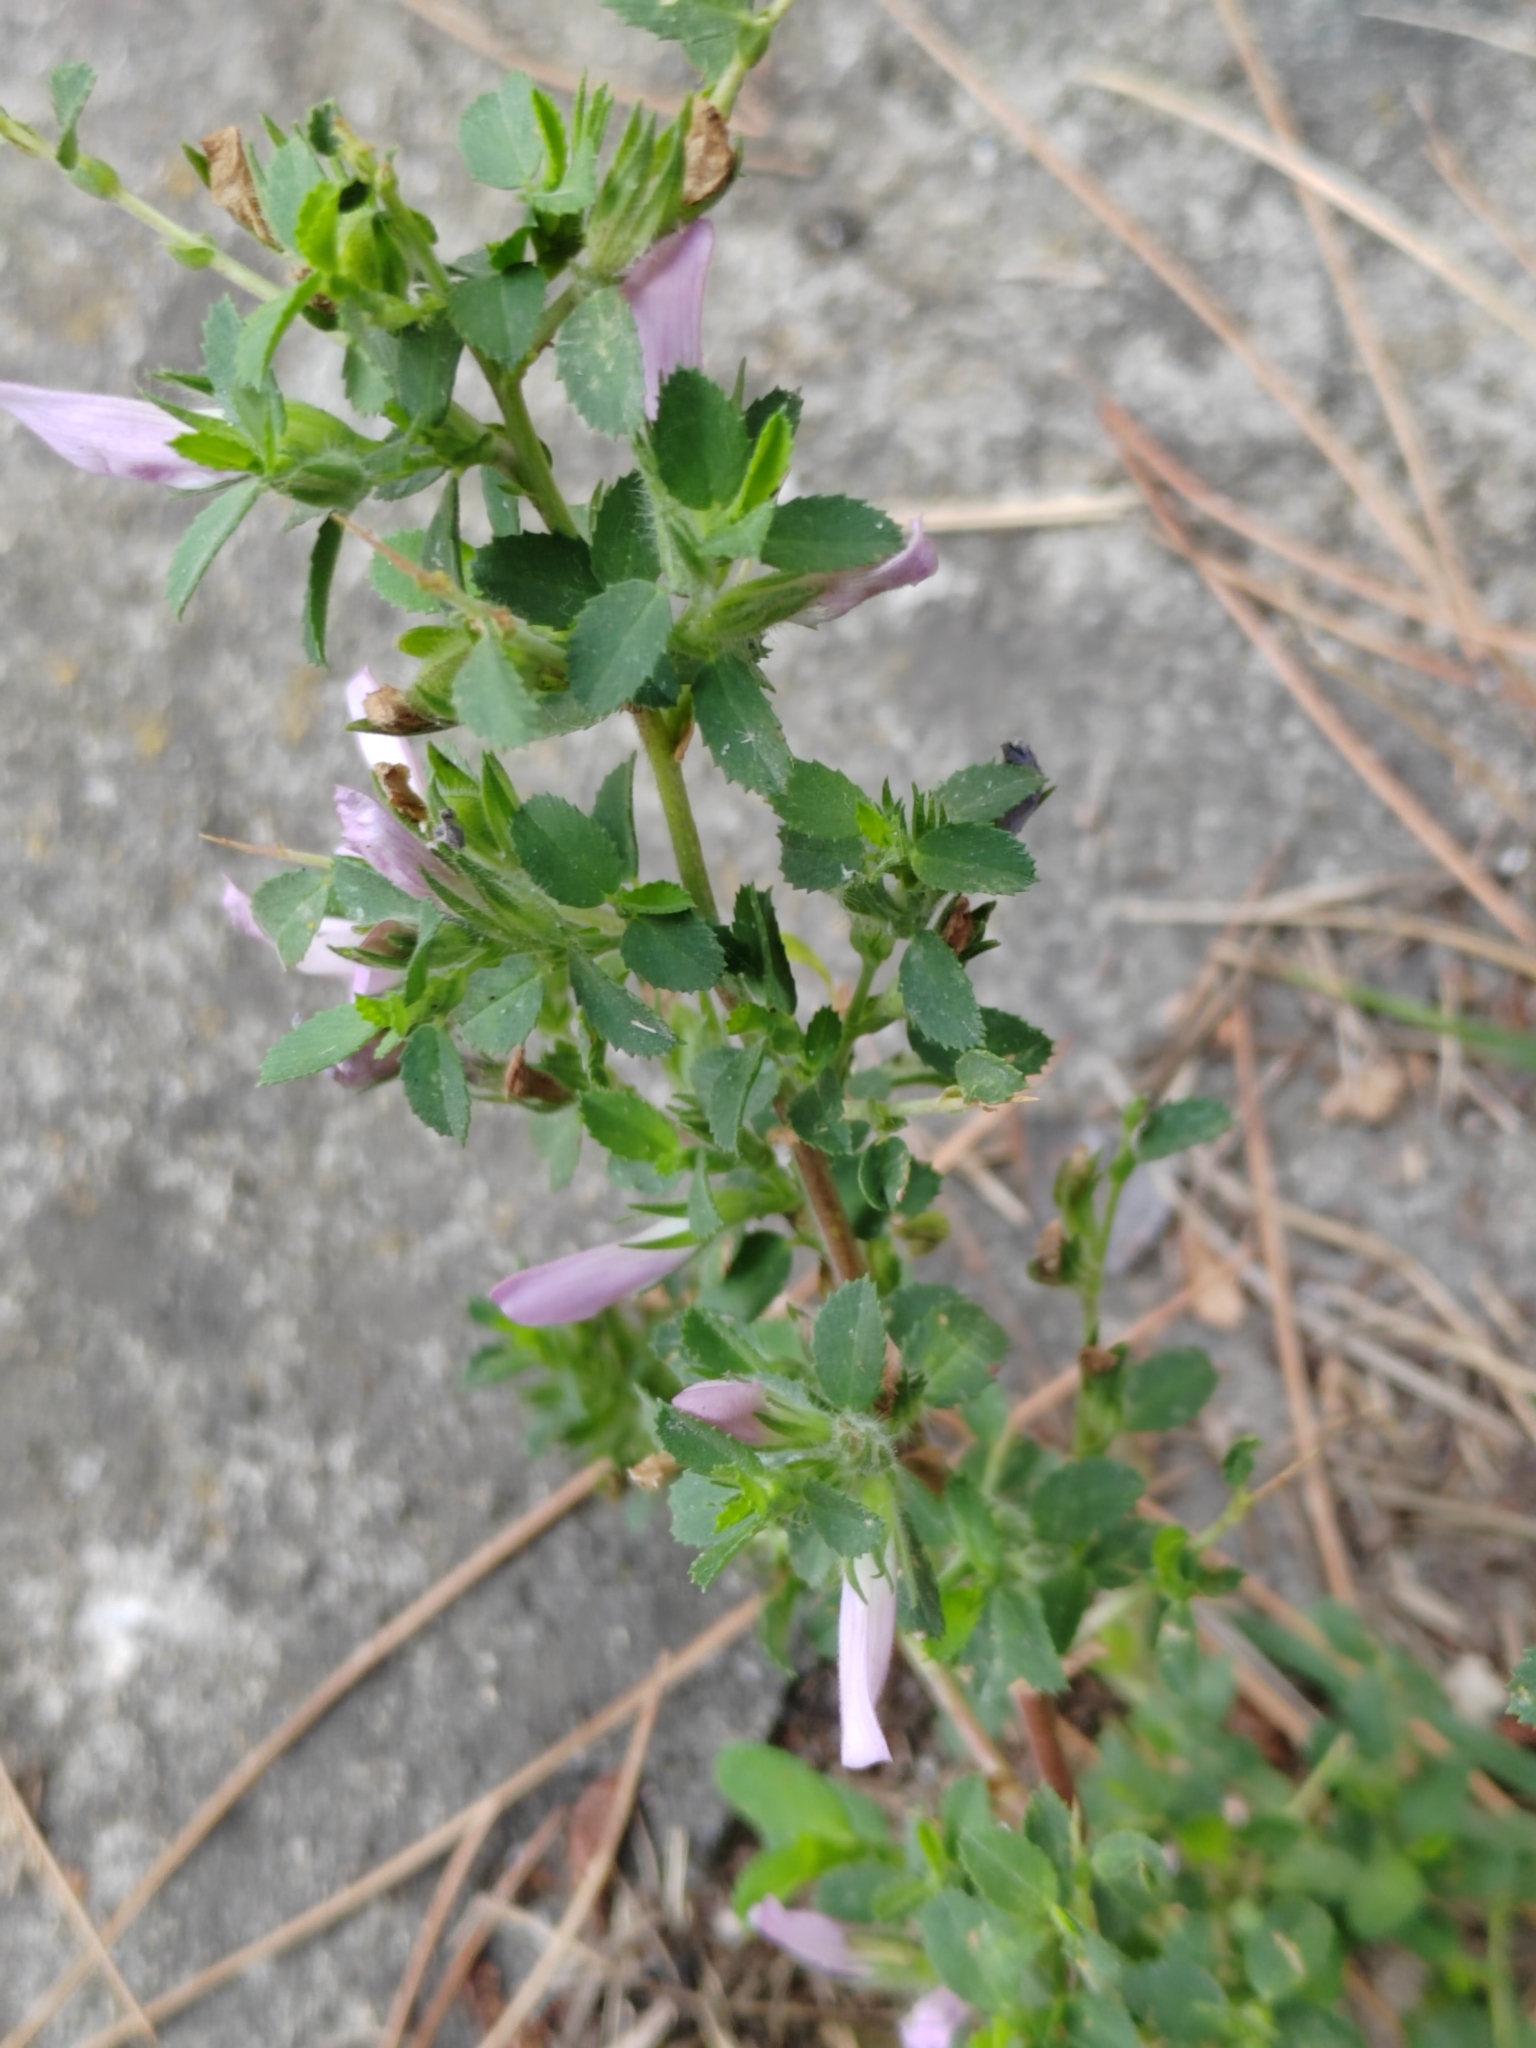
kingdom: Plantae
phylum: Tracheophyta
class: Magnoliopsida
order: Fabales
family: Fabaceae
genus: Ononis
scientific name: Ononis arvensis
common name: Field restharrow
